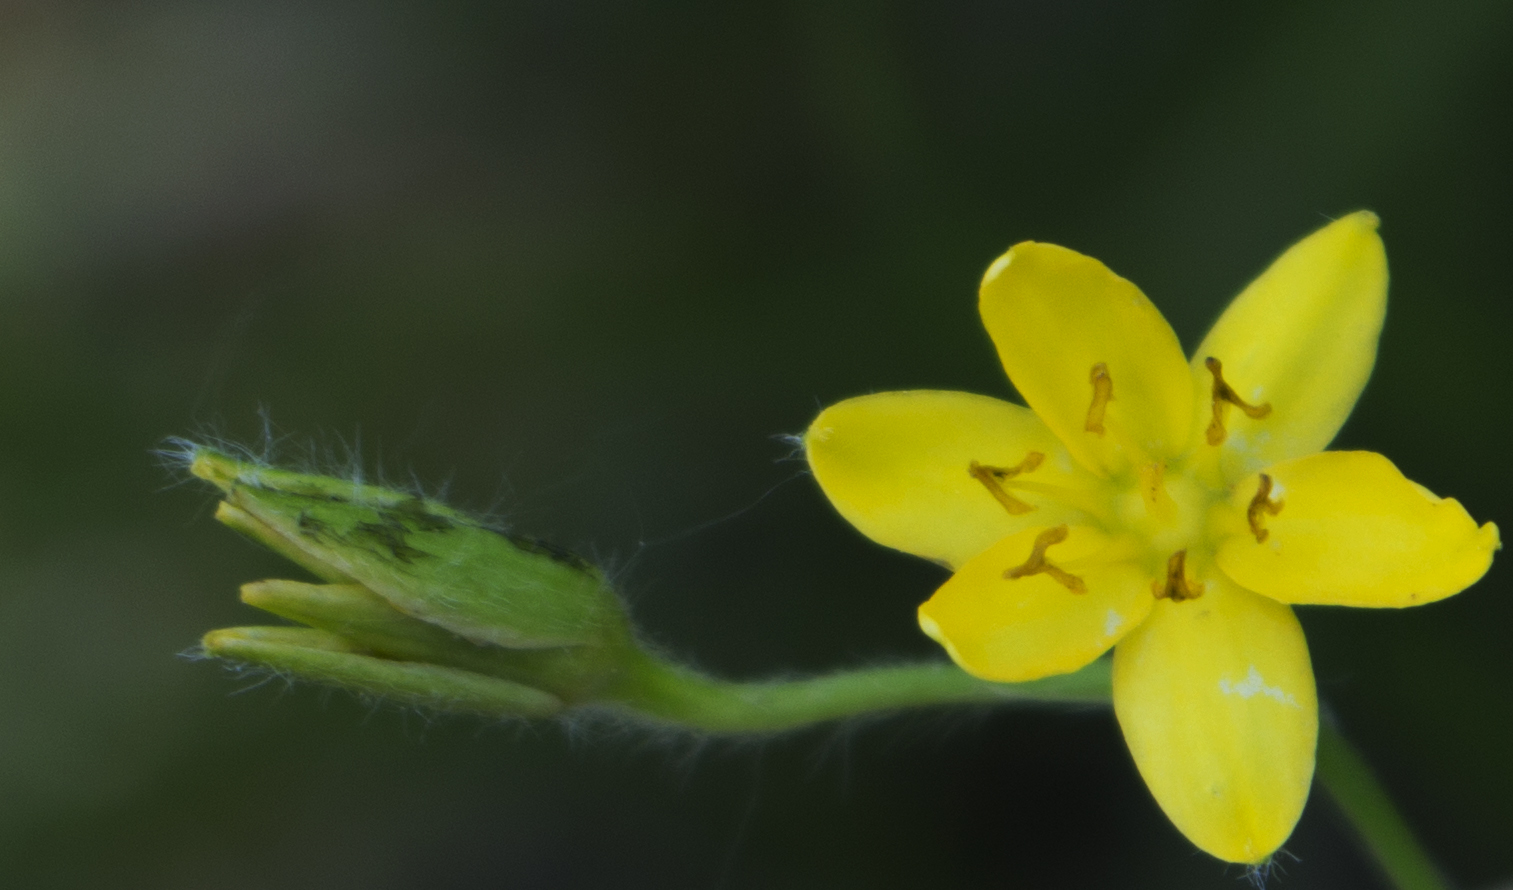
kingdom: Plantae
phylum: Tracheophyta
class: Liliopsida
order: Asparagales
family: Hypoxidaceae
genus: Hypoxis
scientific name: Hypoxis hirsuta
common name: Common goldstar
